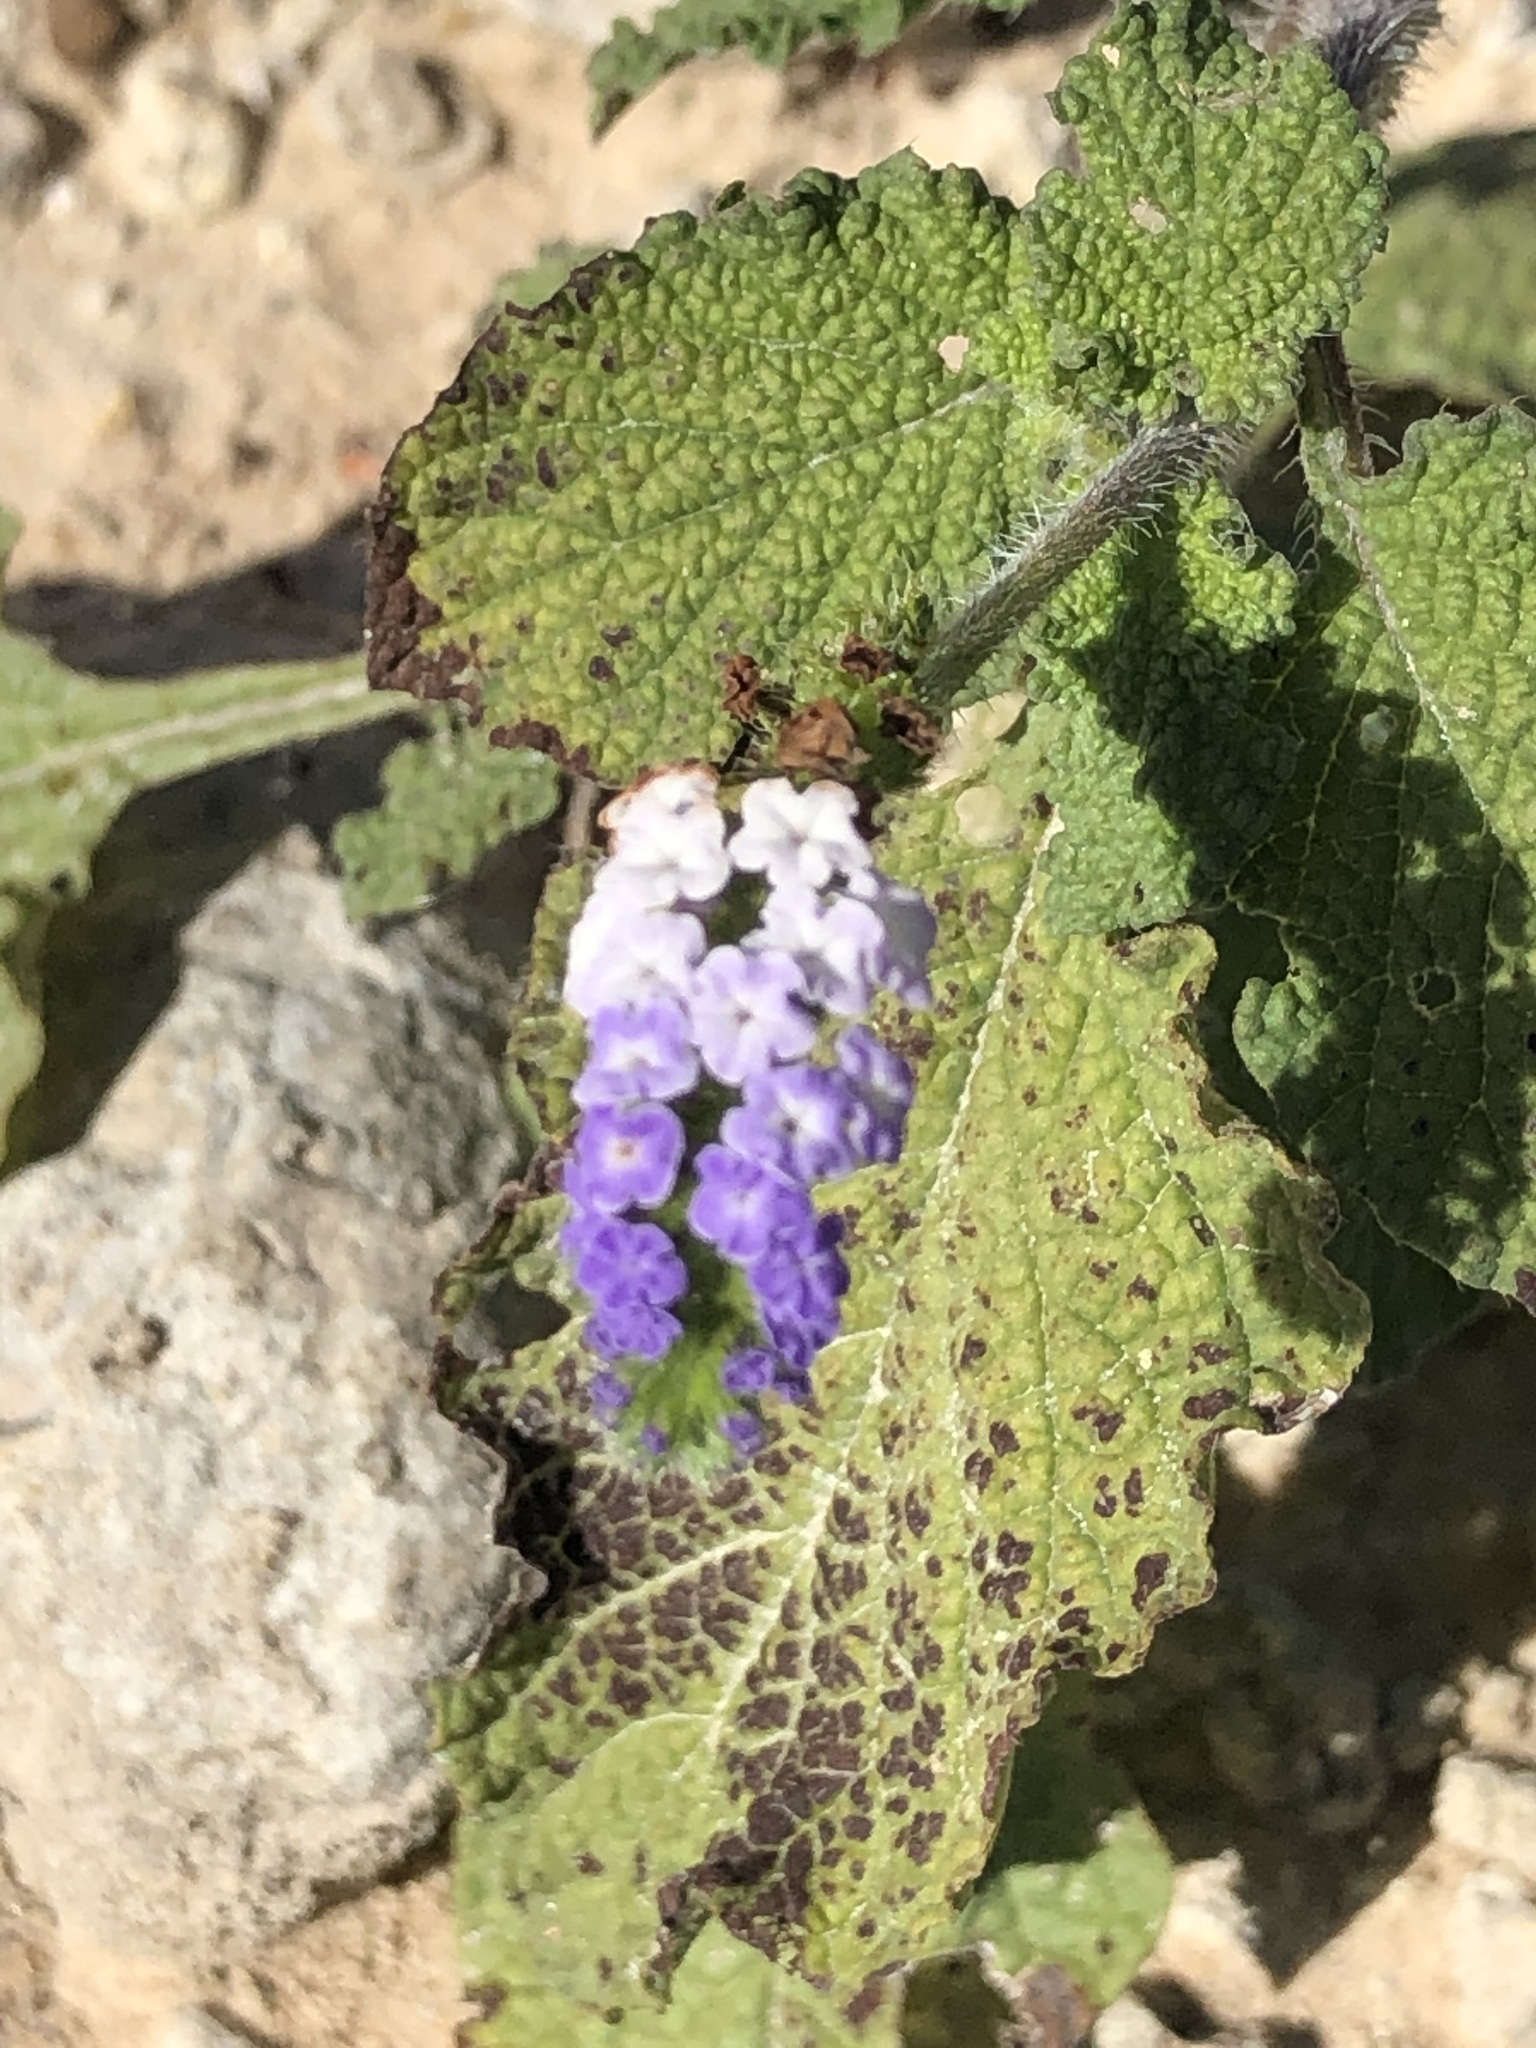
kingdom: Plantae
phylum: Tracheophyta
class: Magnoliopsida
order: Boraginales
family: Heliotropiaceae
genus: Heliotropium
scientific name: Heliotropium indicum
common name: Indian heliotrope
